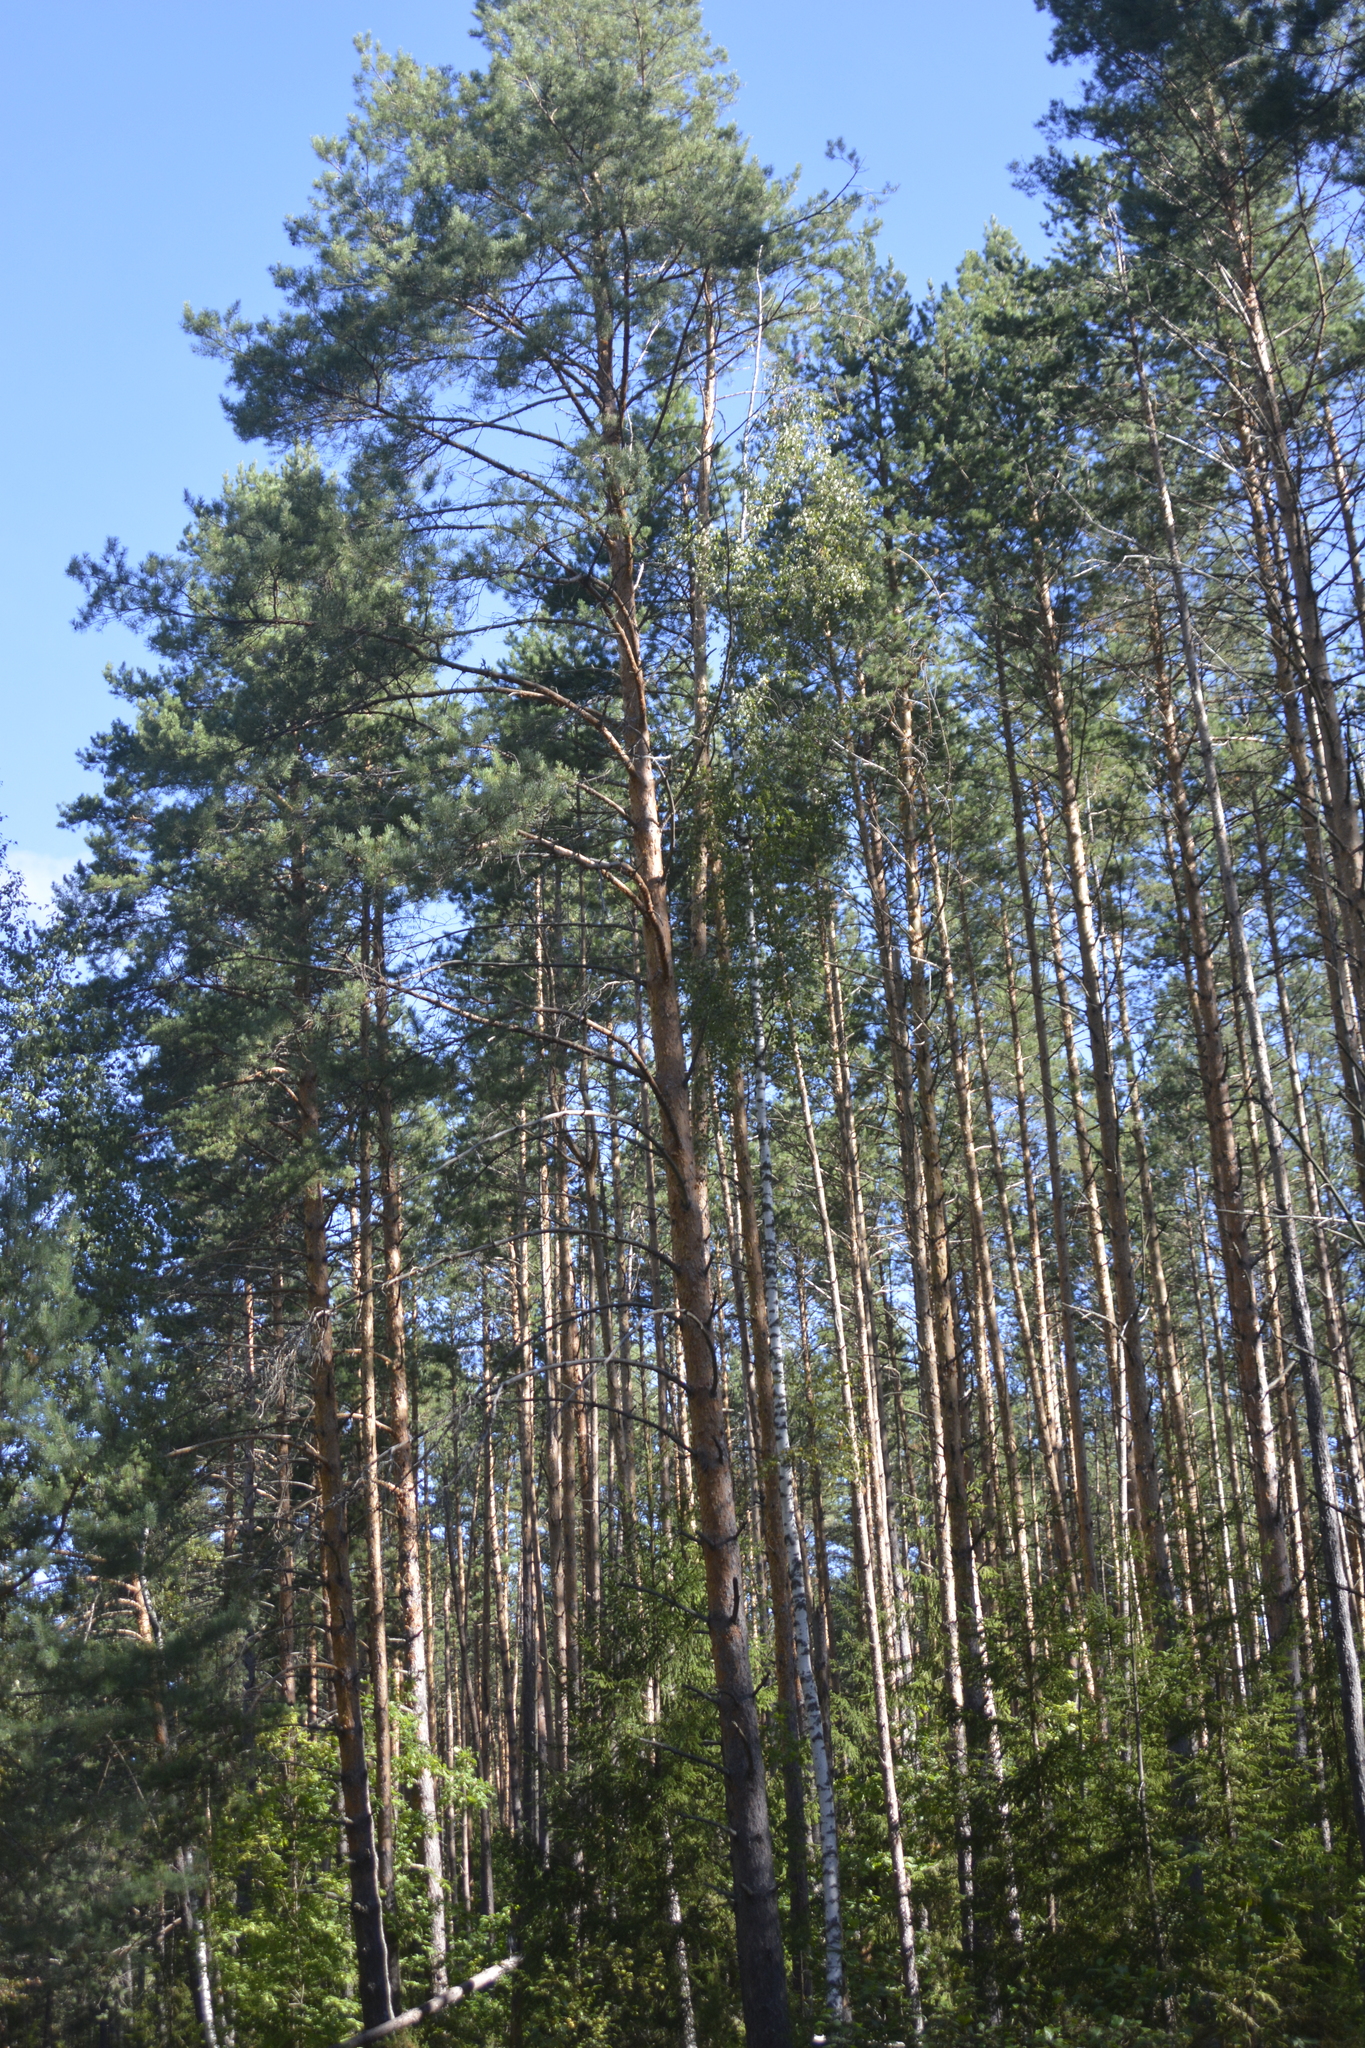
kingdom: Plantae
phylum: Tracheophyta
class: Pinopsida
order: Pinales
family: Pinaceae
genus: Pinus
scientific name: Pinus sylvestris
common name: Scots pine
